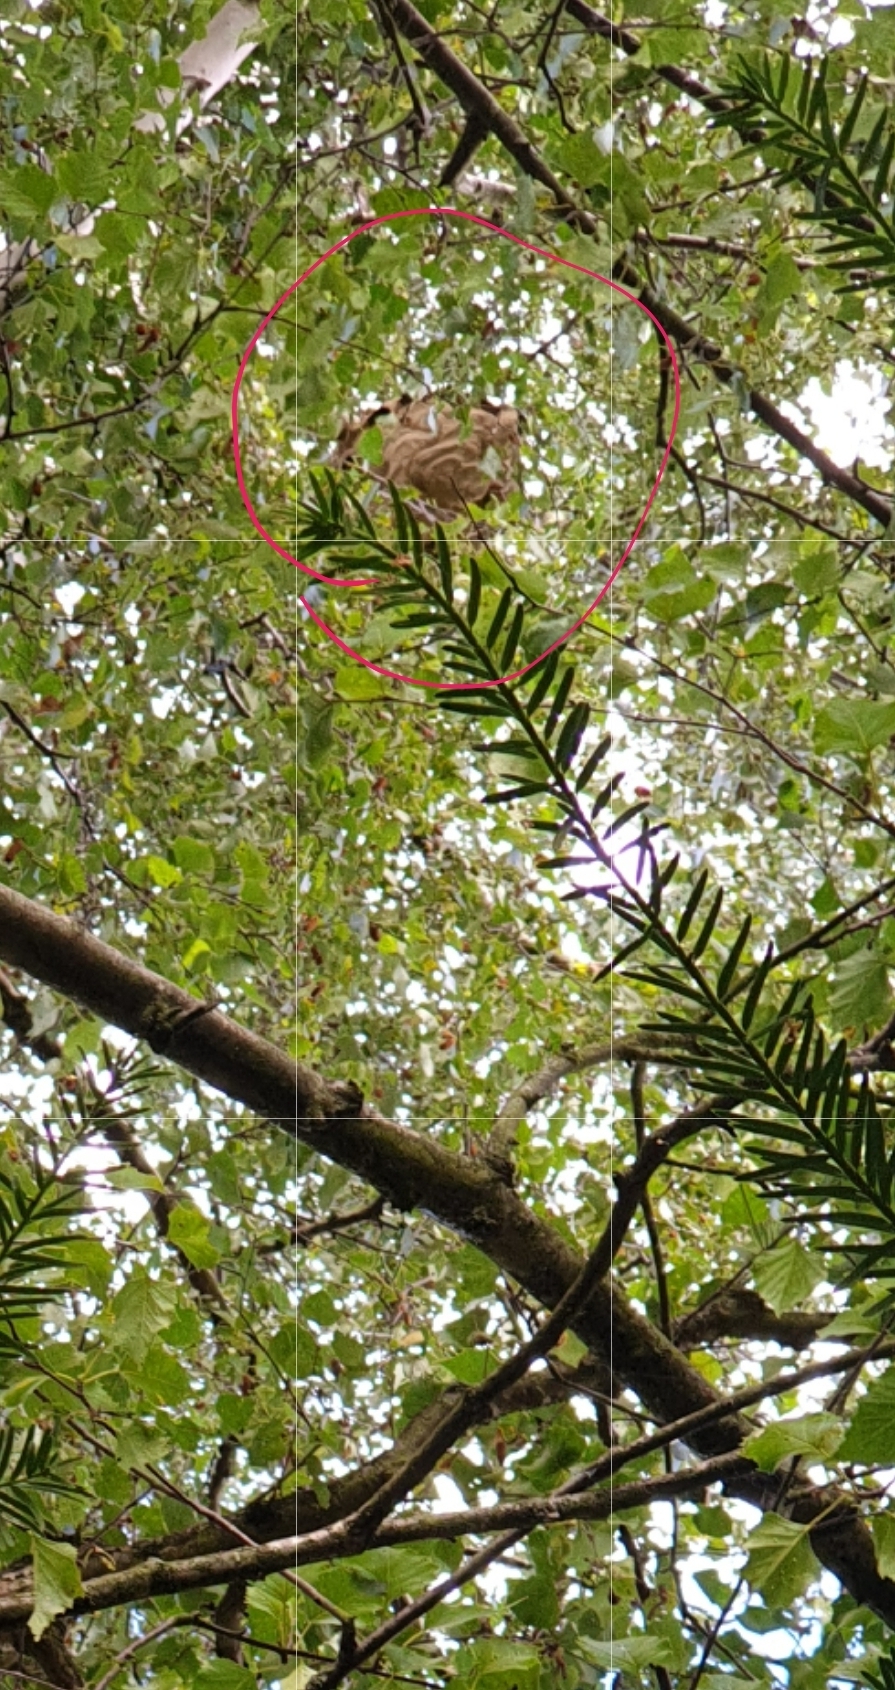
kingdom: Animalia
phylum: Arthropoda
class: Insecta
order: Hymenoptera
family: Vespidae
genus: Vespa
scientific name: Vespa velutina
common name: Asian hornet
